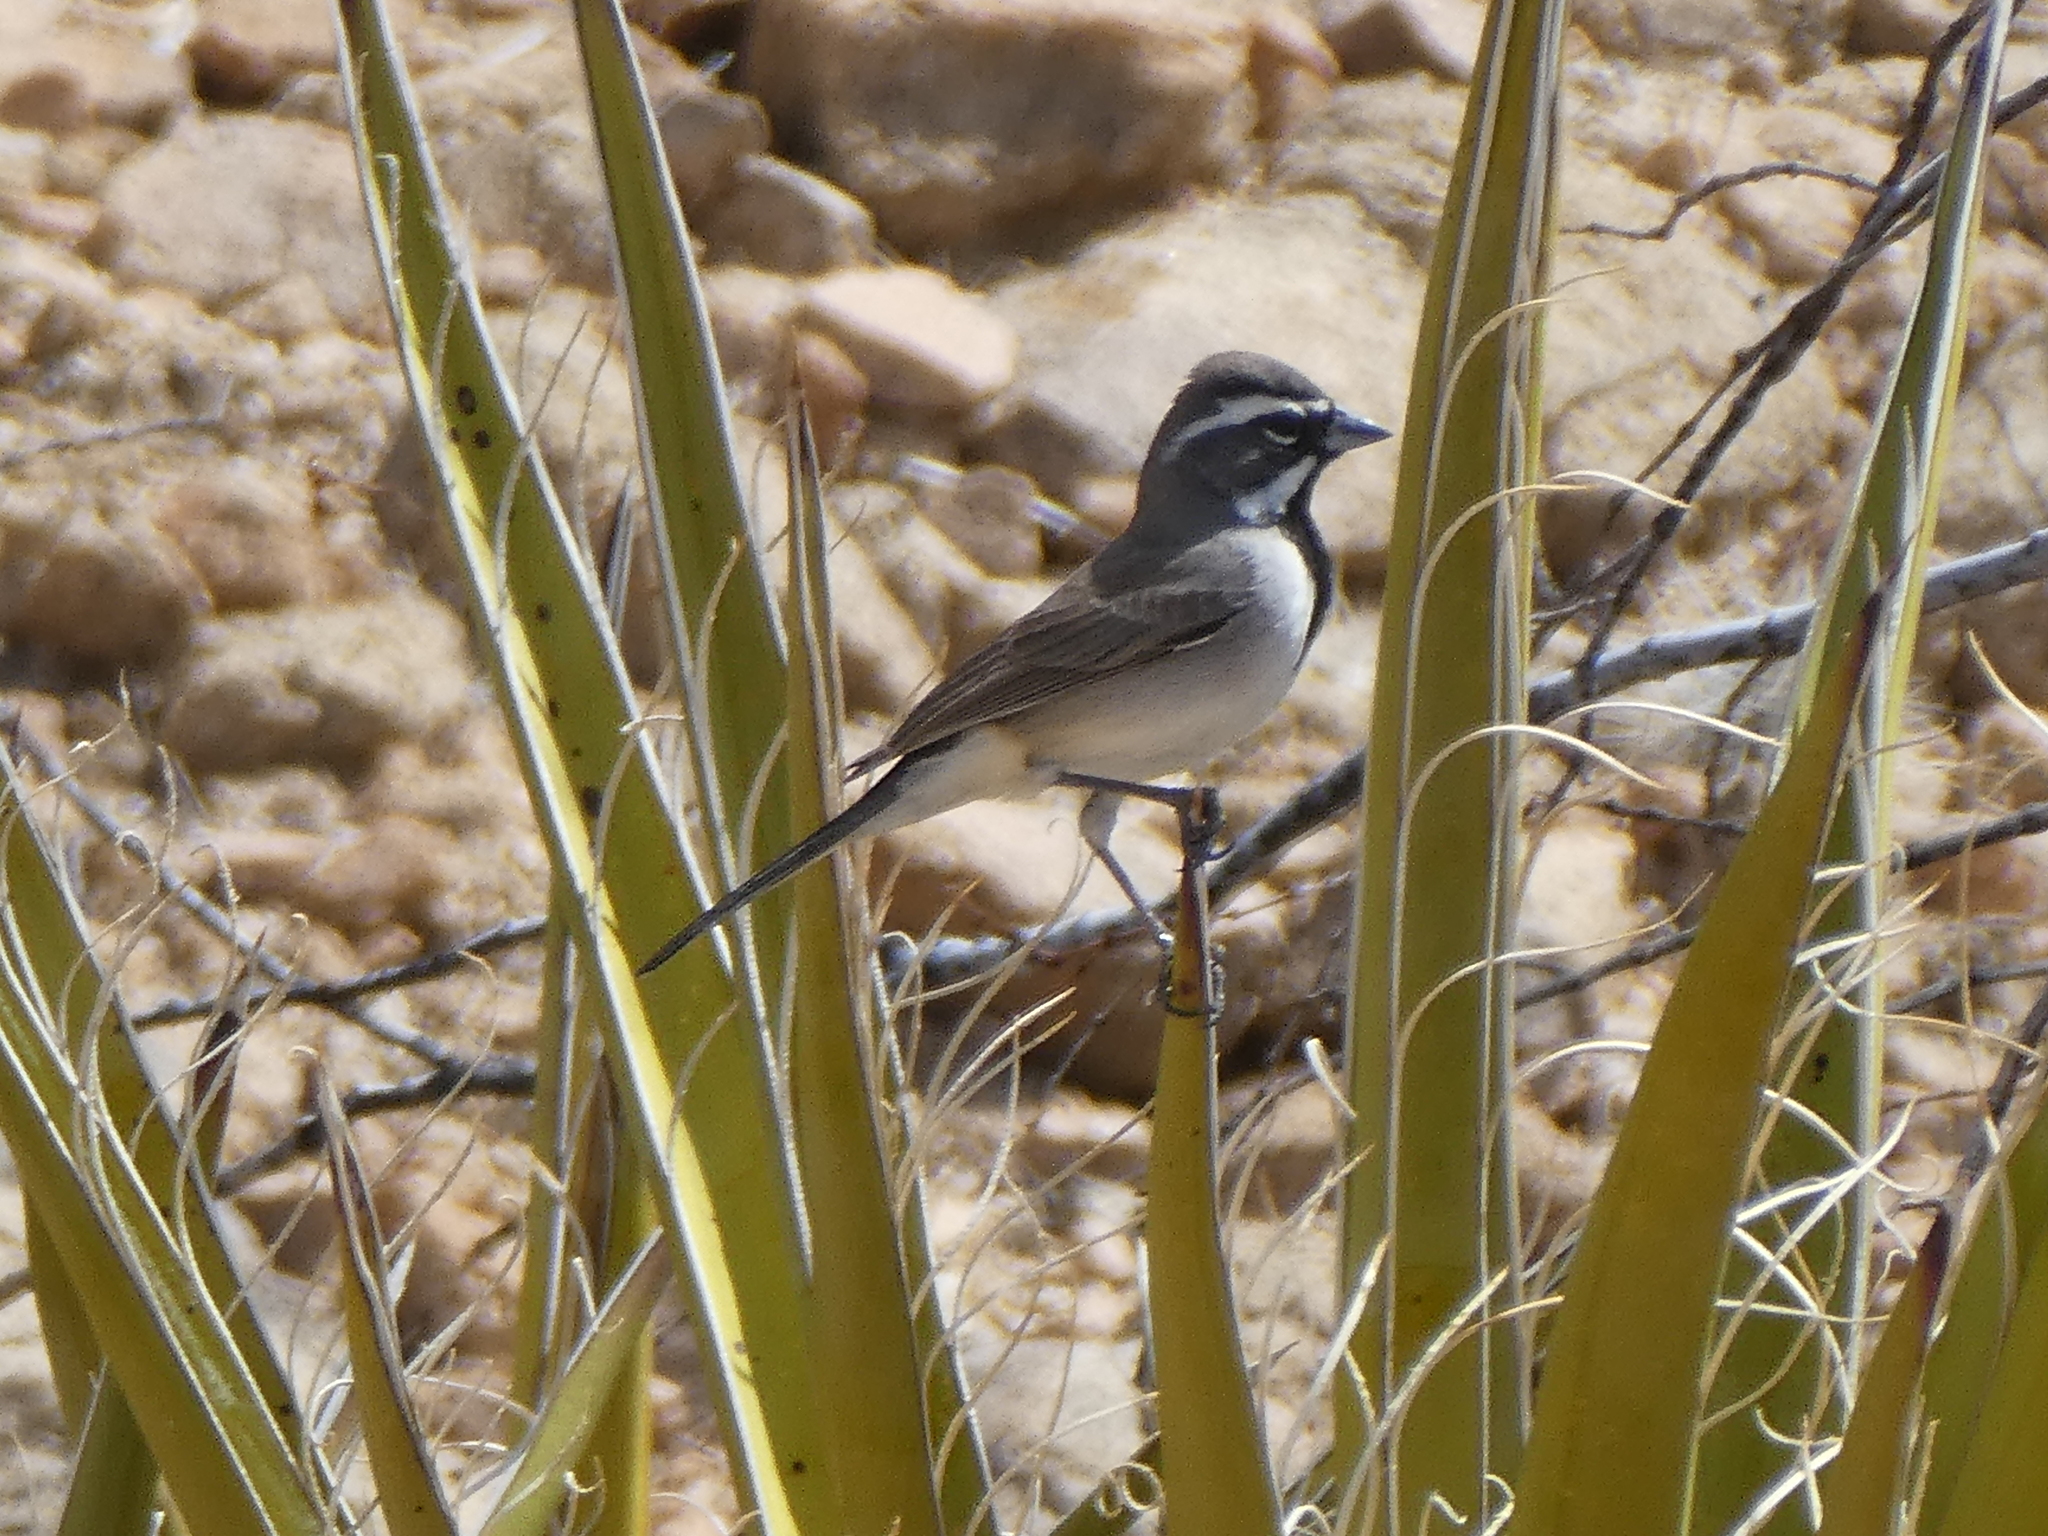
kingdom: Animalia
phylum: Chordata
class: Aves
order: Passeriformes
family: Passerellidae
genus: Amphispiza
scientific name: Amphispiza bilineata
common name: Black-throated sparrow
